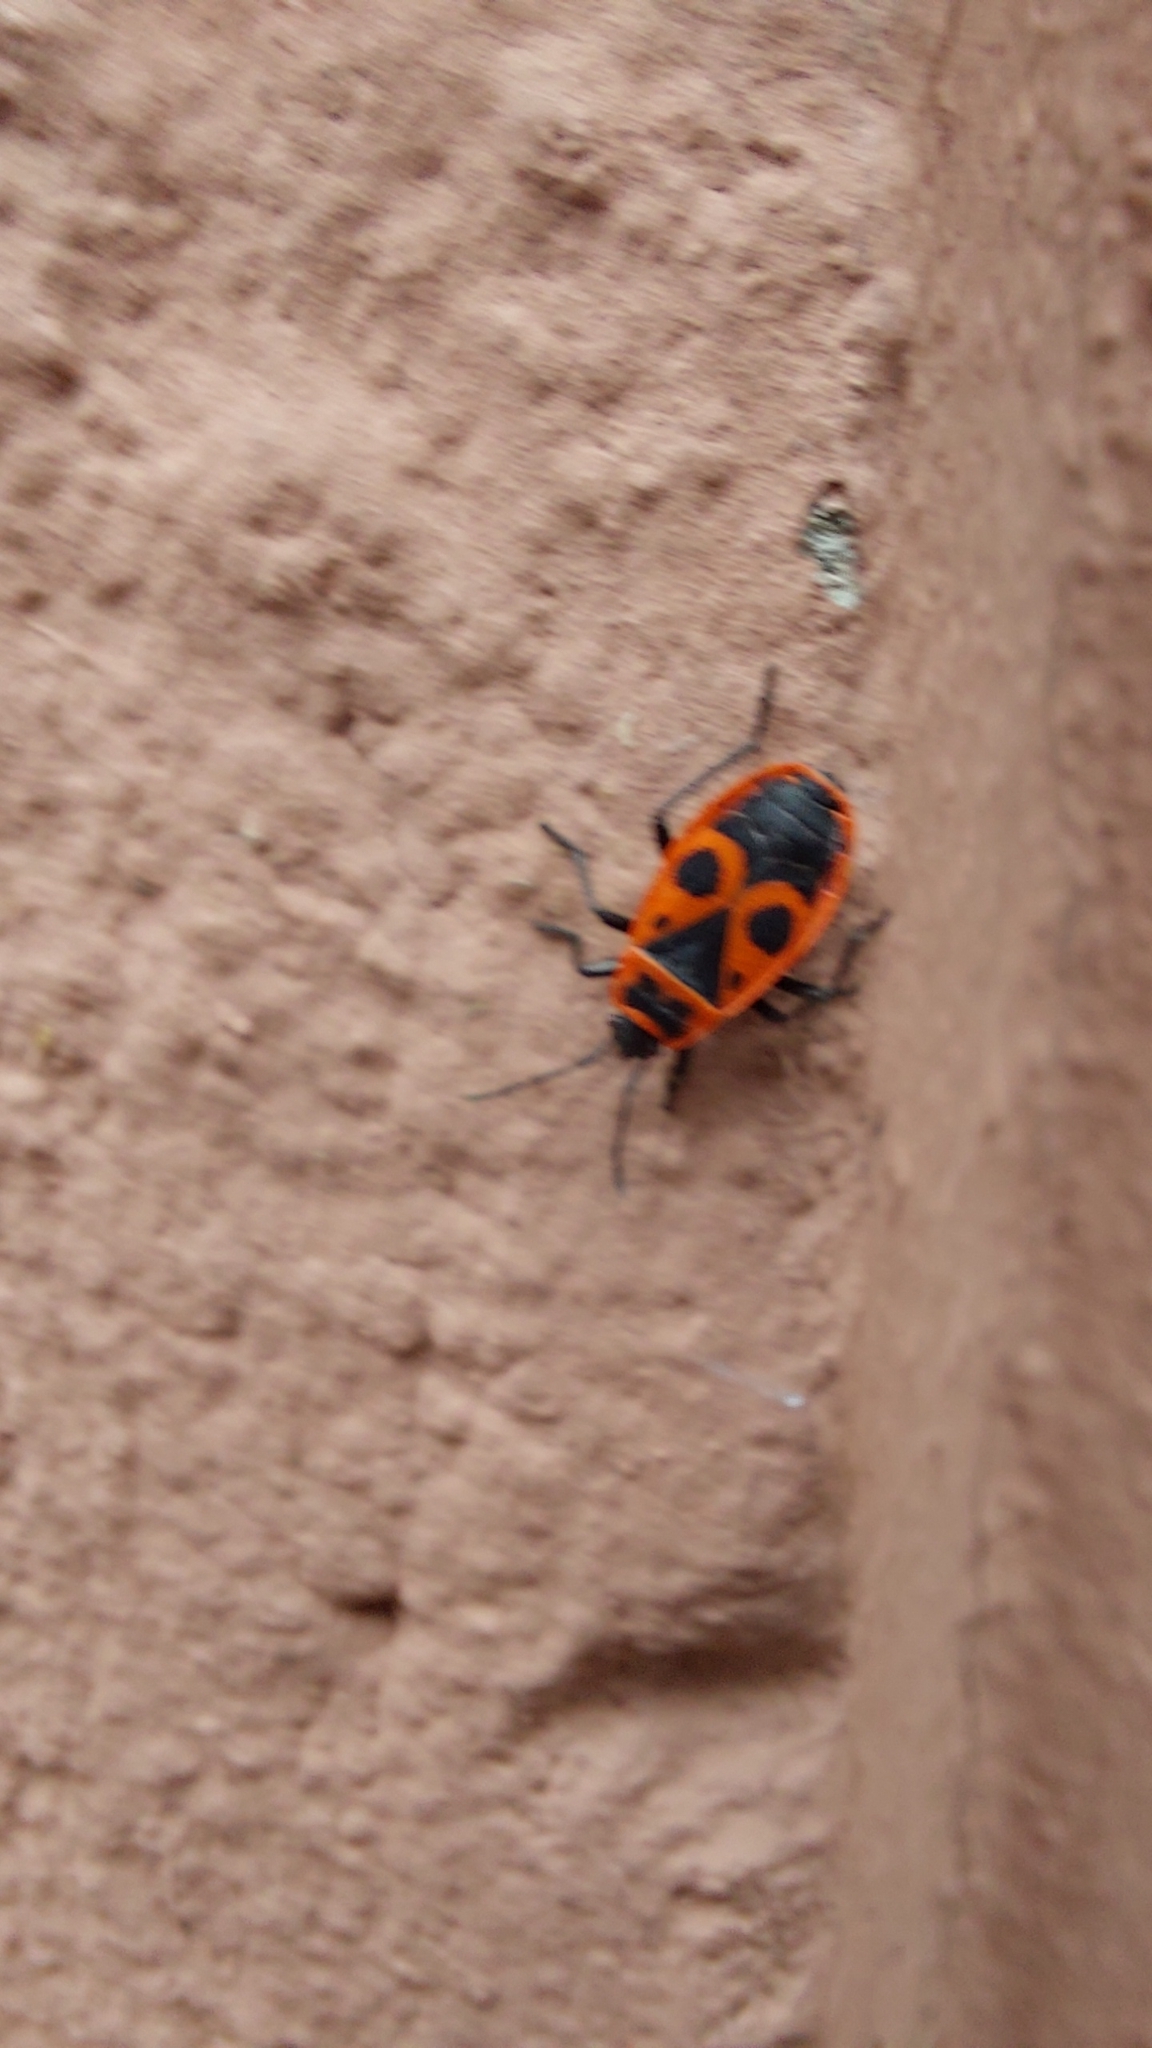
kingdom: Animalia
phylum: Arthropoda
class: Insecta
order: Hemiptera
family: Pyrrhocoridae
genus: Pyrrhocoris
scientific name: Pyrrhocoris apterus
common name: Firebug
